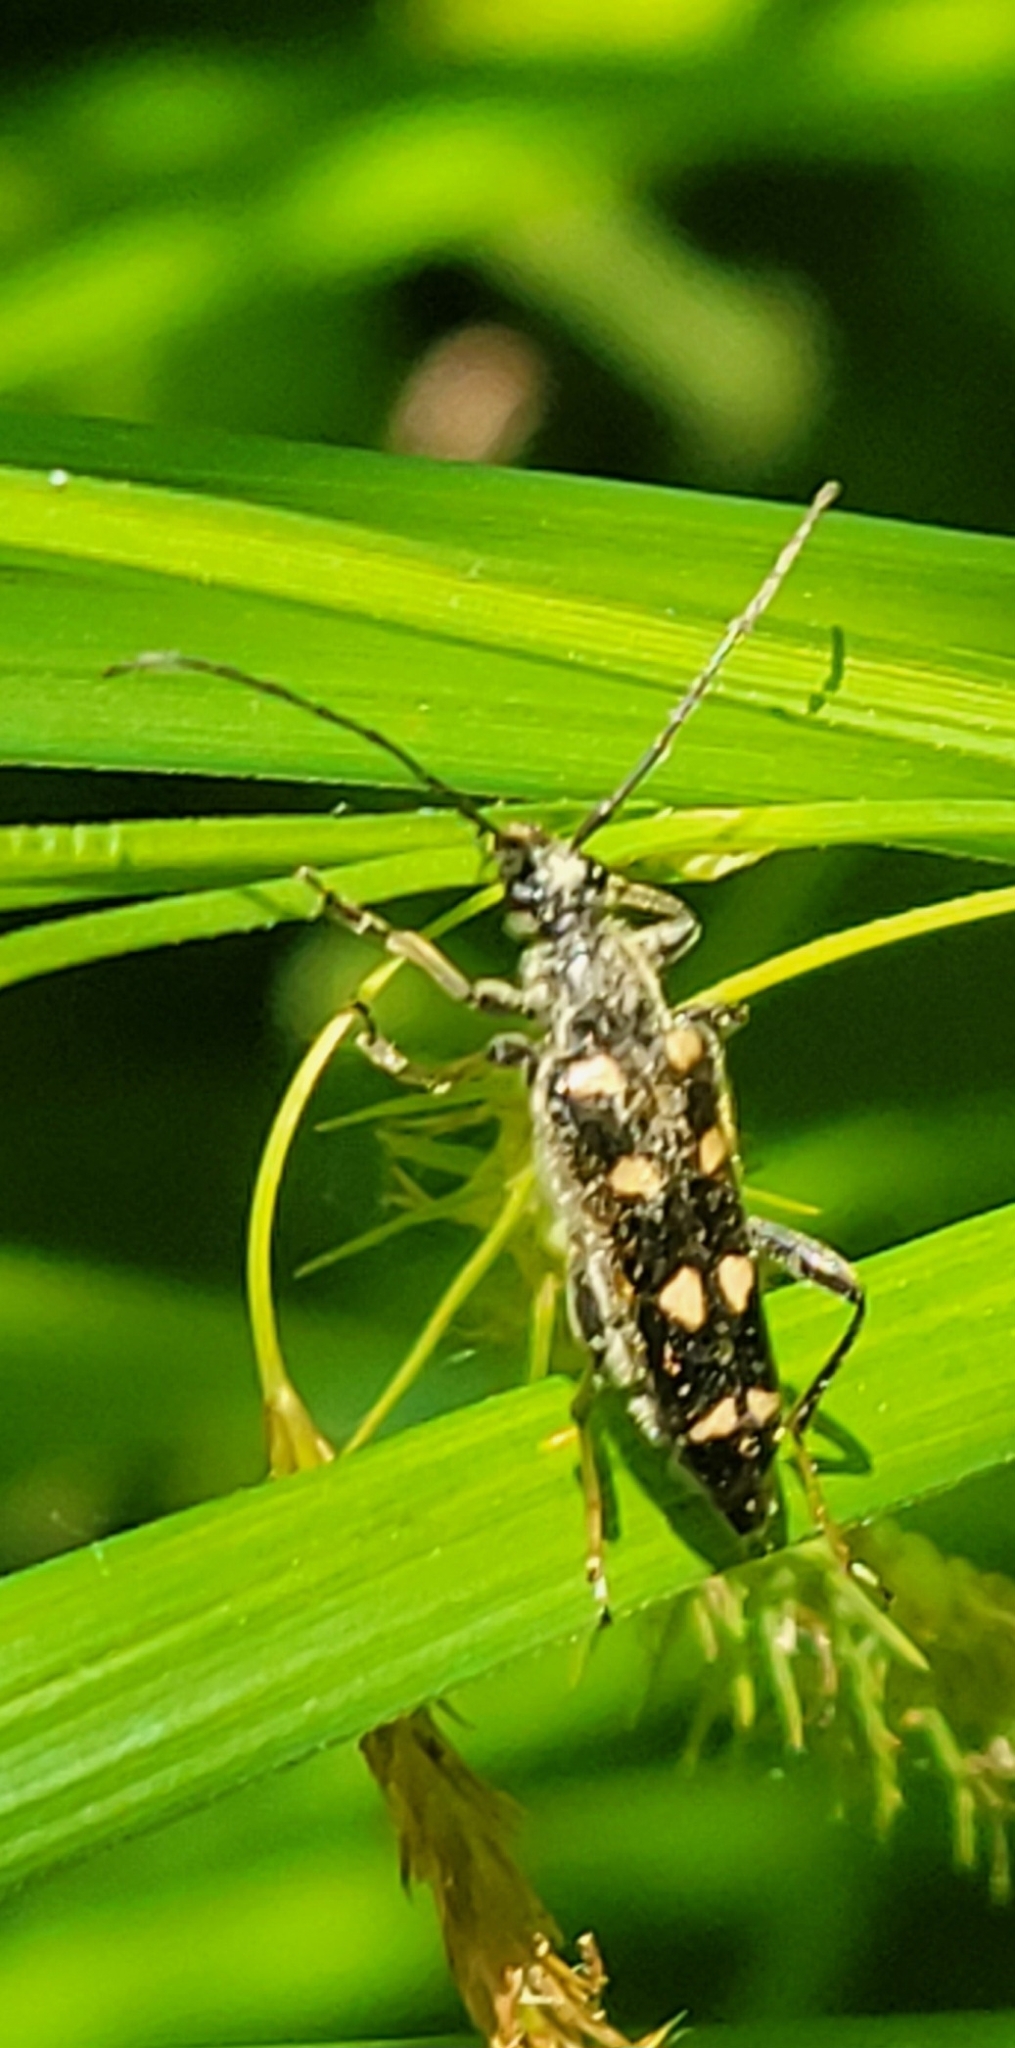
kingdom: Animalia
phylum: Arthropoda
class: Insecta
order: Coleoptera
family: Cerambycidae
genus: Xestoleptura
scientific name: Xestoleptura octonotata
